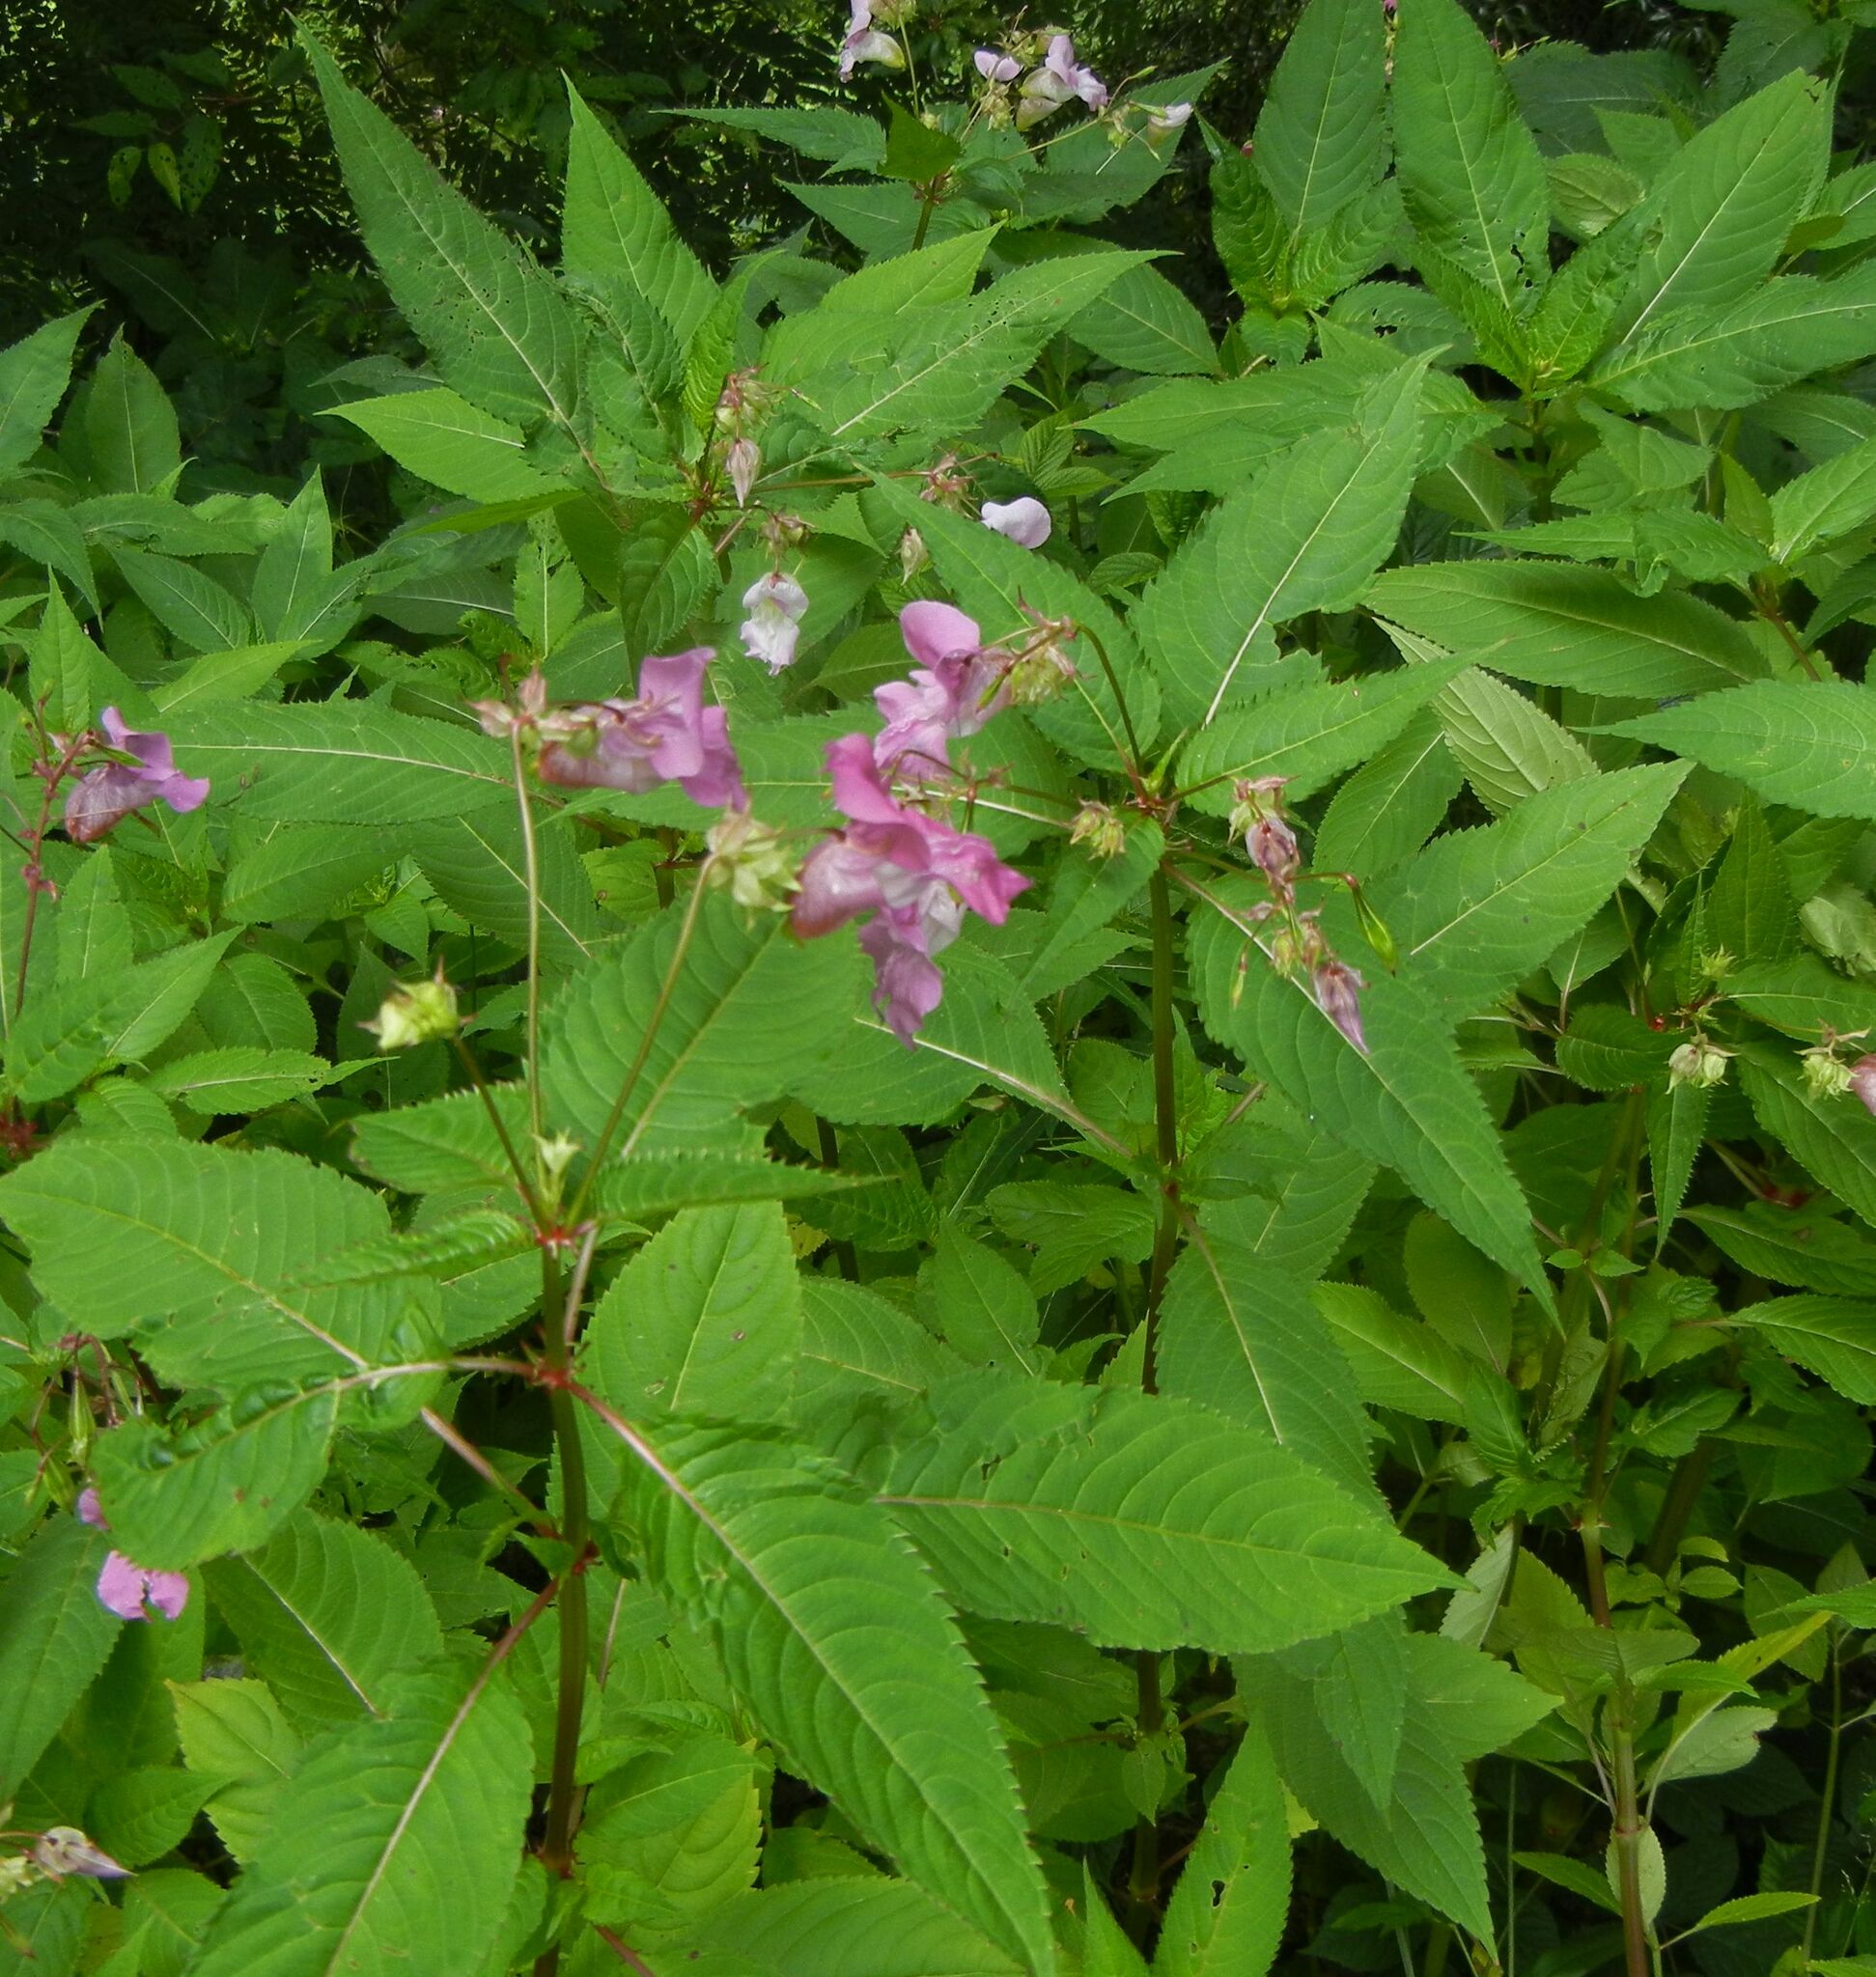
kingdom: Plantae
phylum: Tracheophyta
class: Magnoliopsida
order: Ericales
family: Balsaminaceae
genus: Impatiens
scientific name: Impatiens glandulifera
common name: Himalayan balsam
